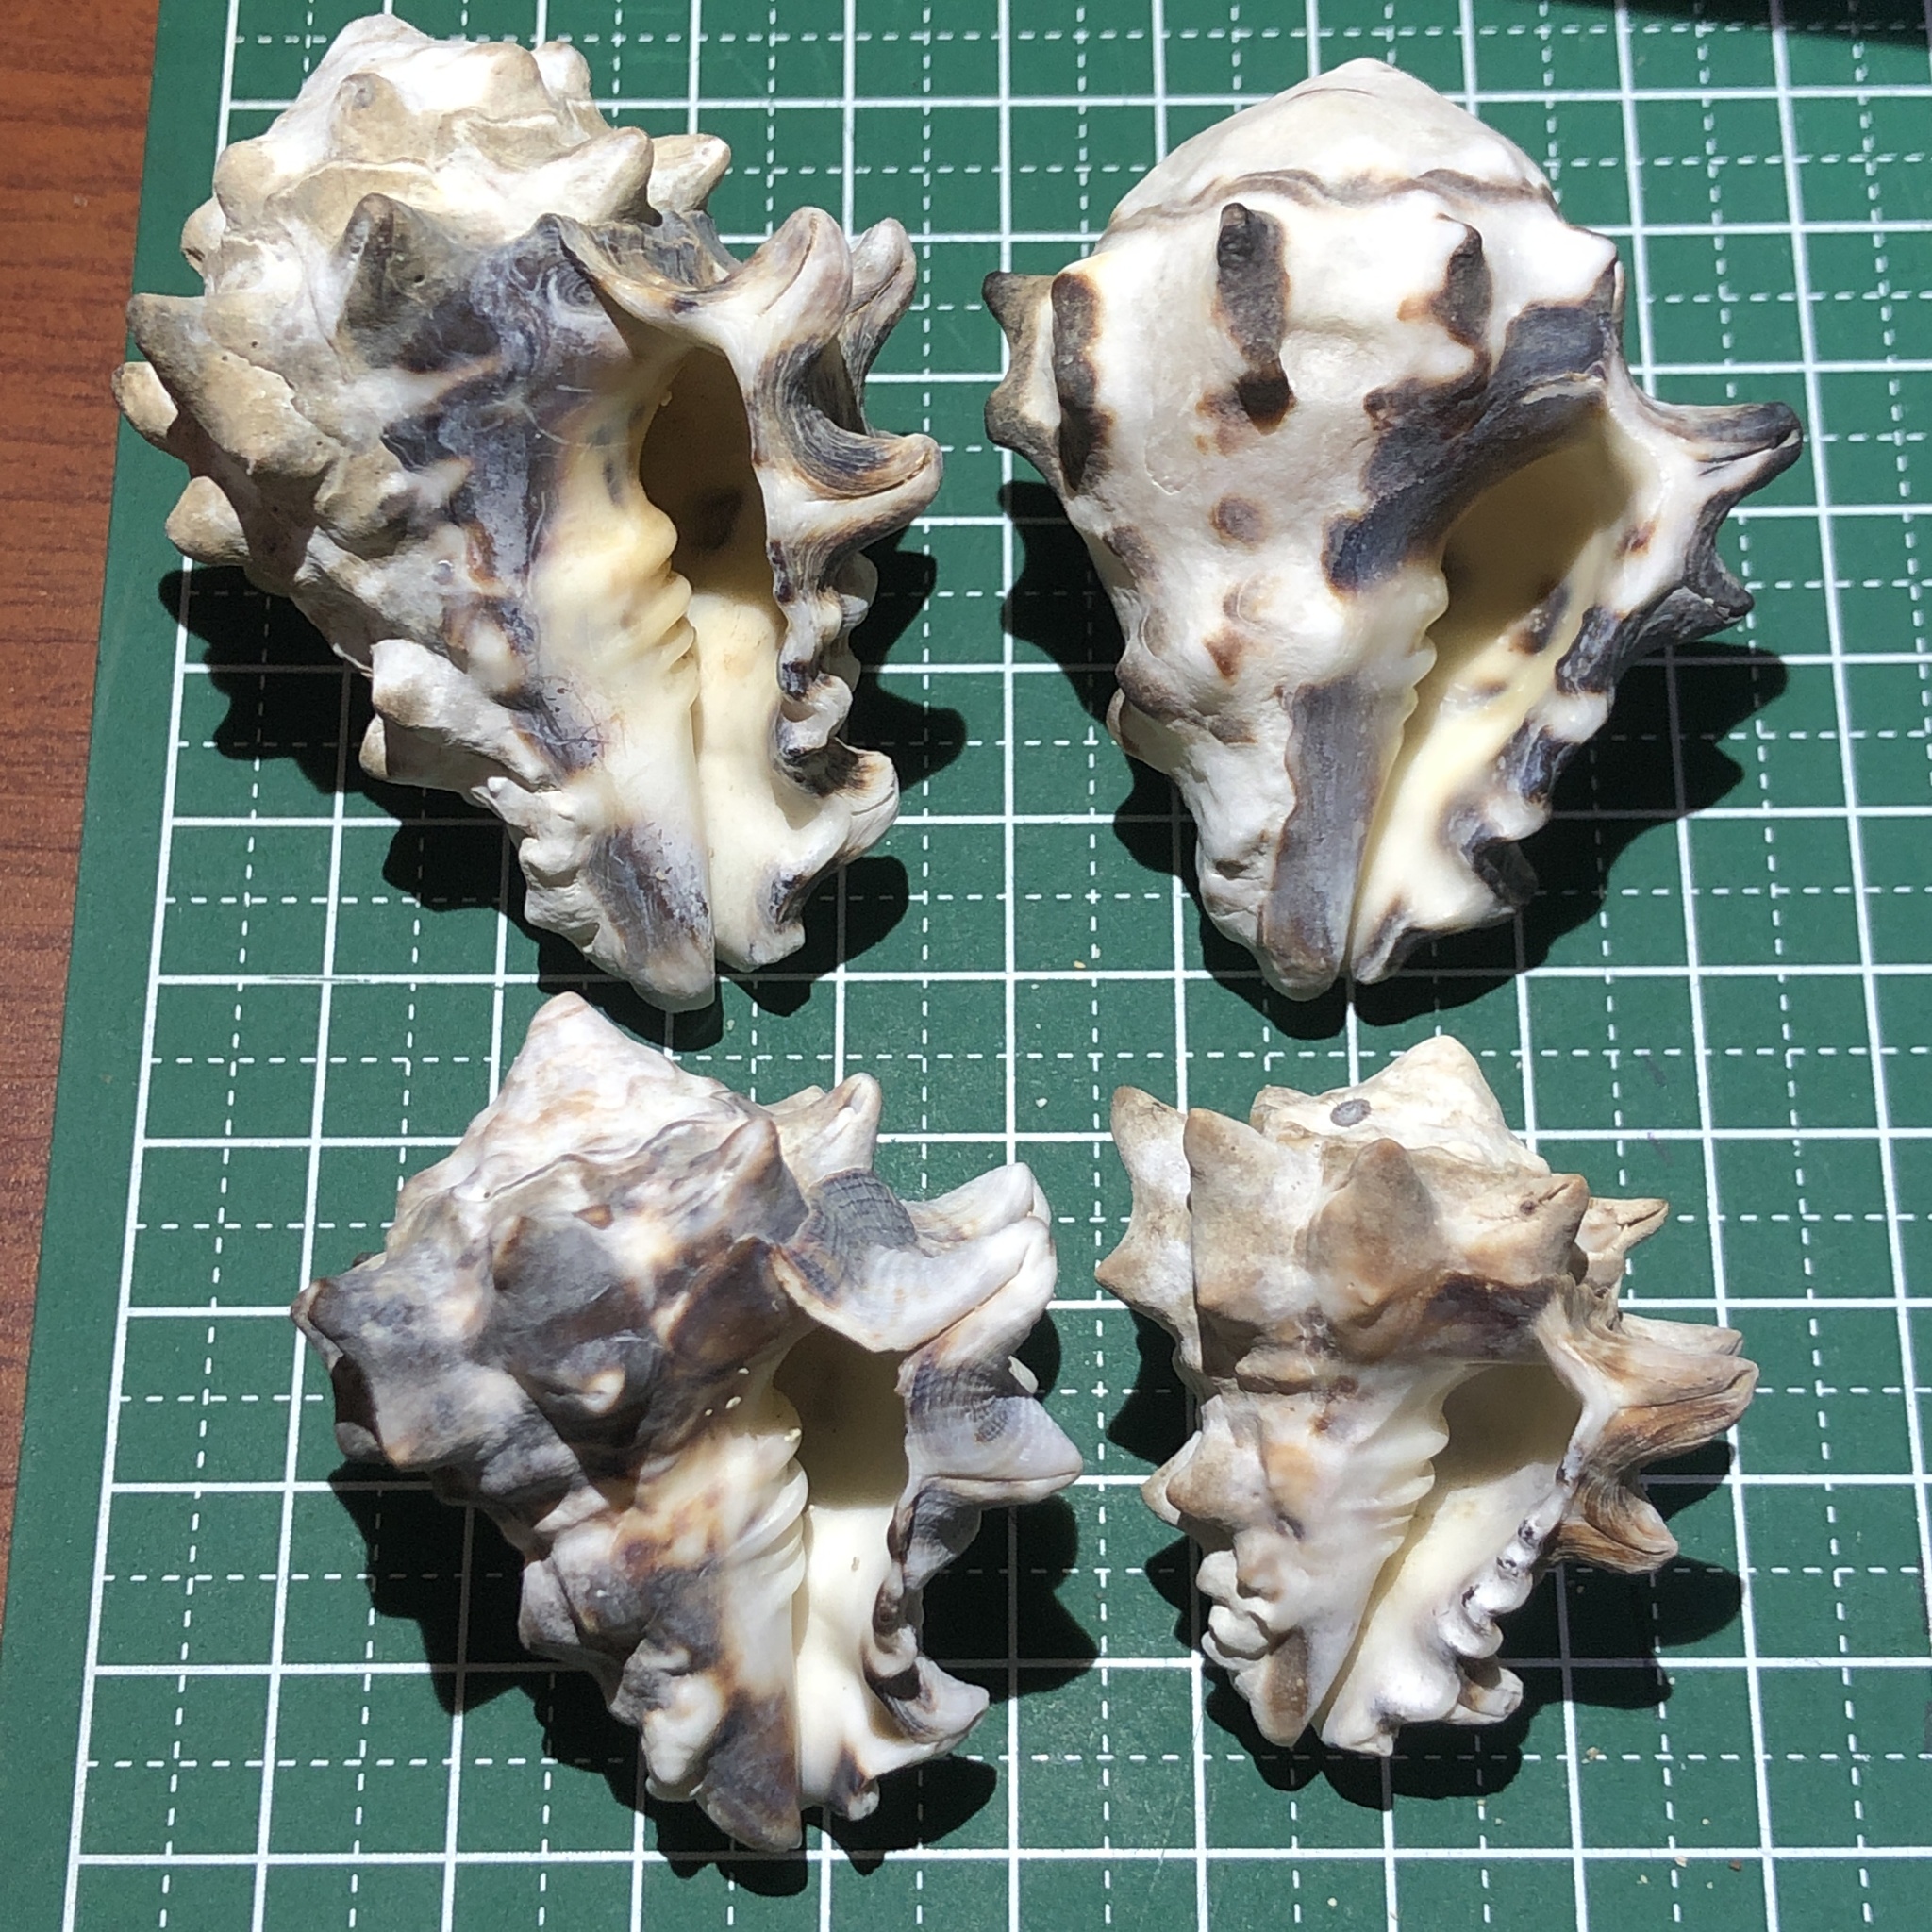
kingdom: Animalia
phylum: Mollusca
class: Gastropoda
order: Neogastropoda
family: Turbinellidae
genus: Vasum
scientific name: Vasum turbinellus
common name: Pacific top vase
